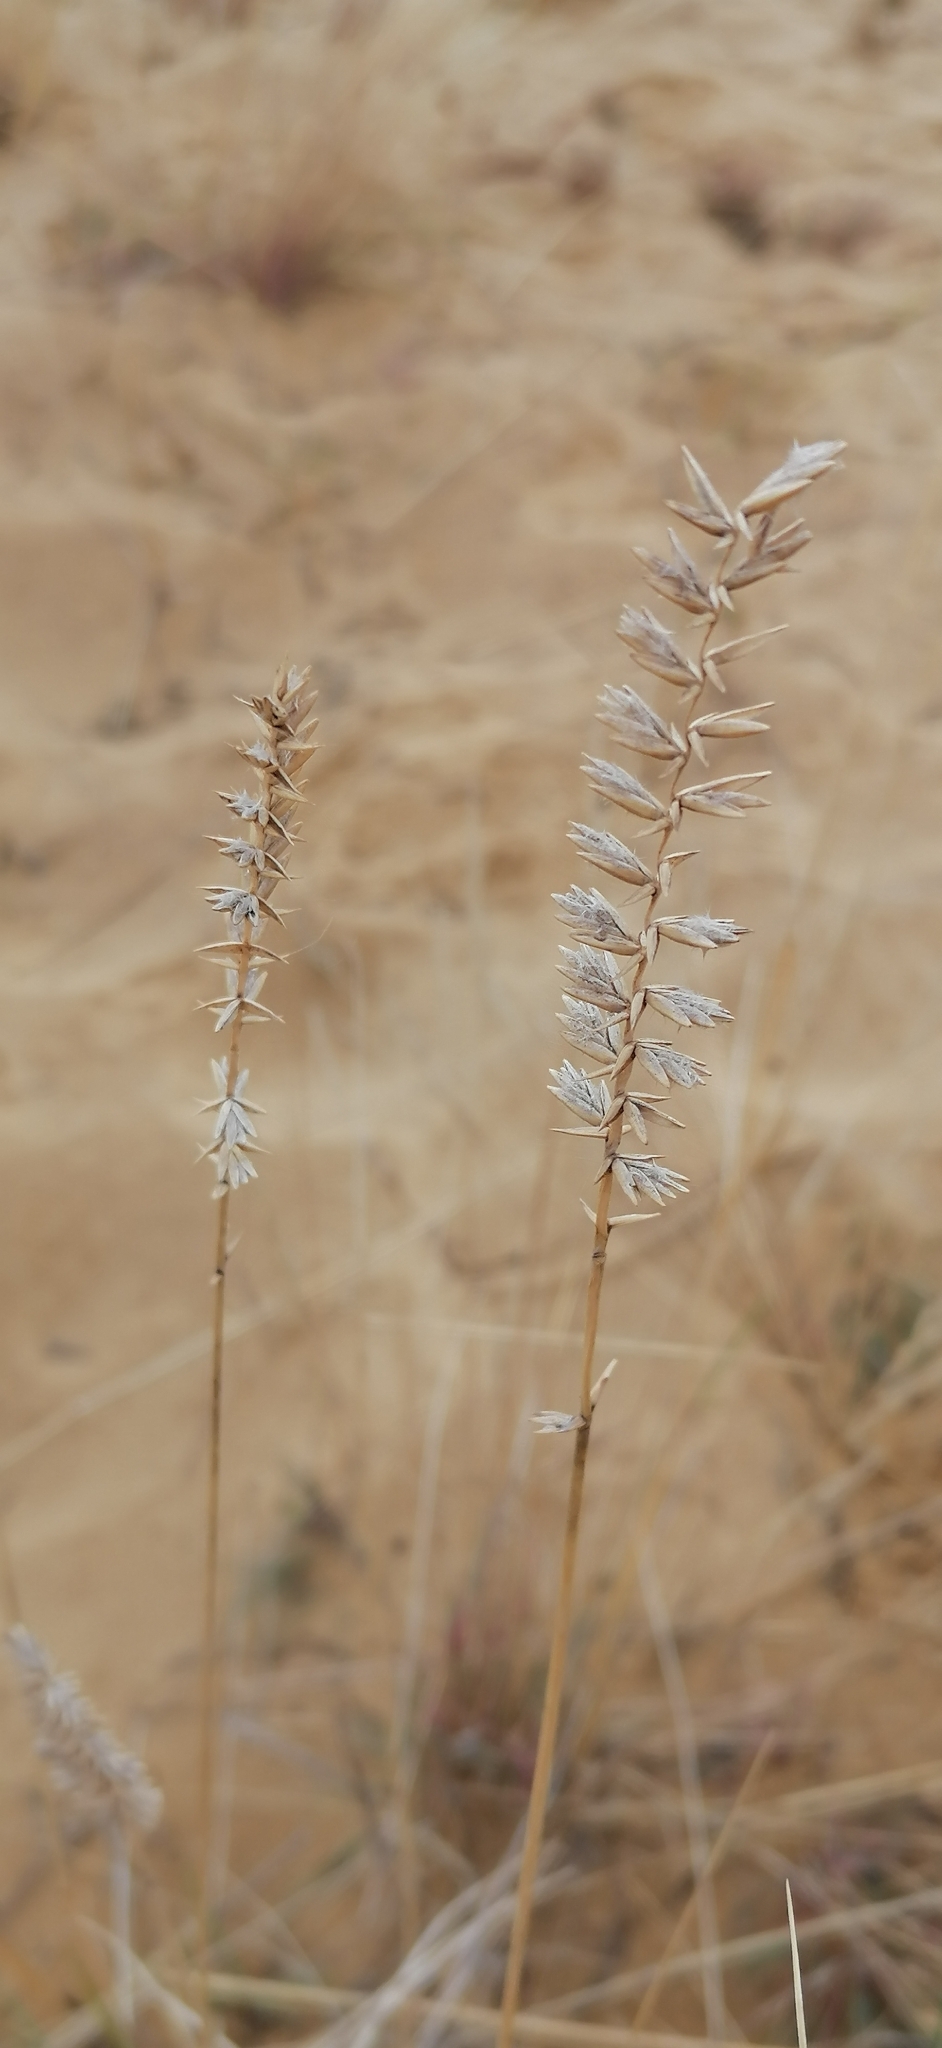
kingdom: Plantae
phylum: Tracheophyta
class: Liliopsida
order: Poales
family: Poaceae
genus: Agropyron
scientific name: Agropyron dasyanthum
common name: Edge flowered crested wheatgrass
